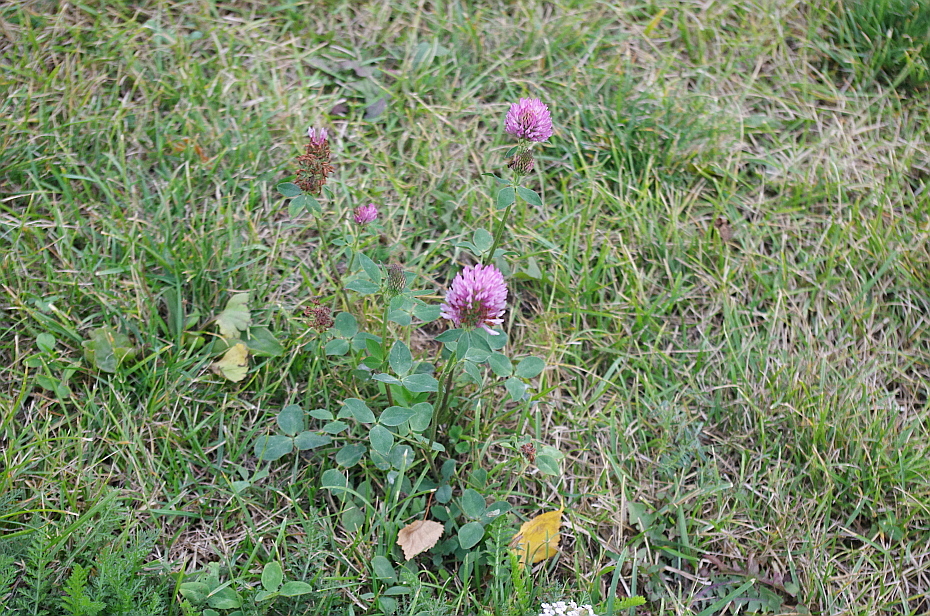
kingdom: Plantae
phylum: Tracheophyta
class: Magnoliopsida
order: Fabales
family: Fabaceae
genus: Trifolium
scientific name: Trifolium pratense
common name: Red clover
